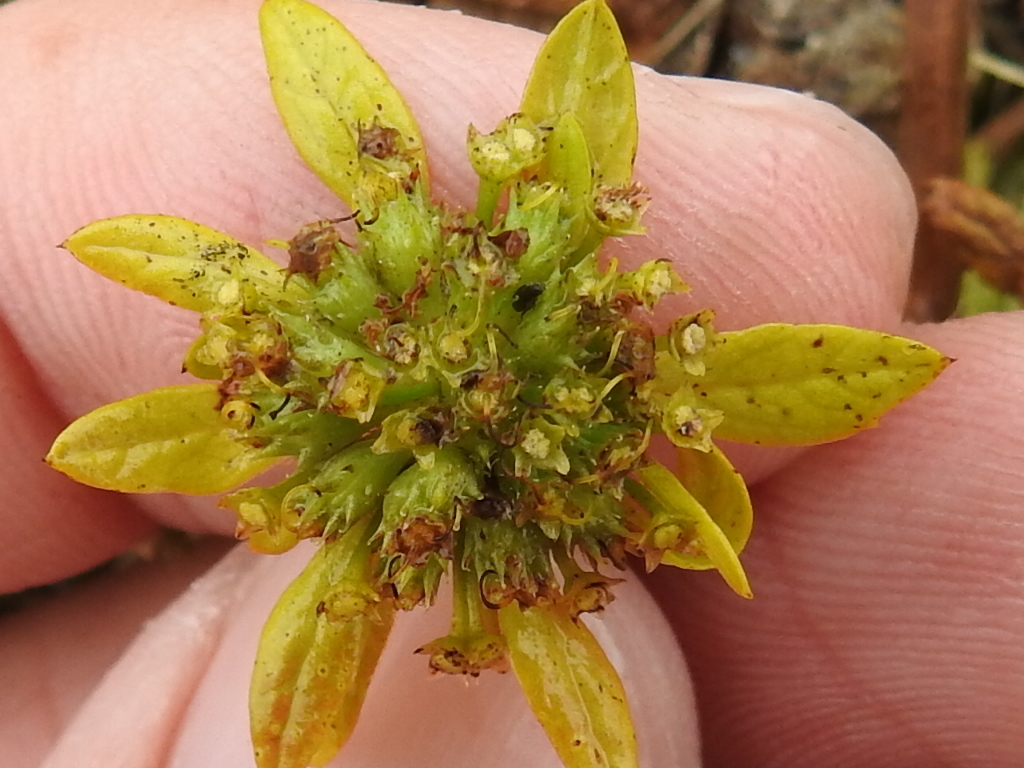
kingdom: Plantae
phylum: Tracheophyta
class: Magnoliopsida
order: Apiales
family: Apiaceae
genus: Sanicula
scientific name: Sanicula arctopoides
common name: Footsteps-of-spring
